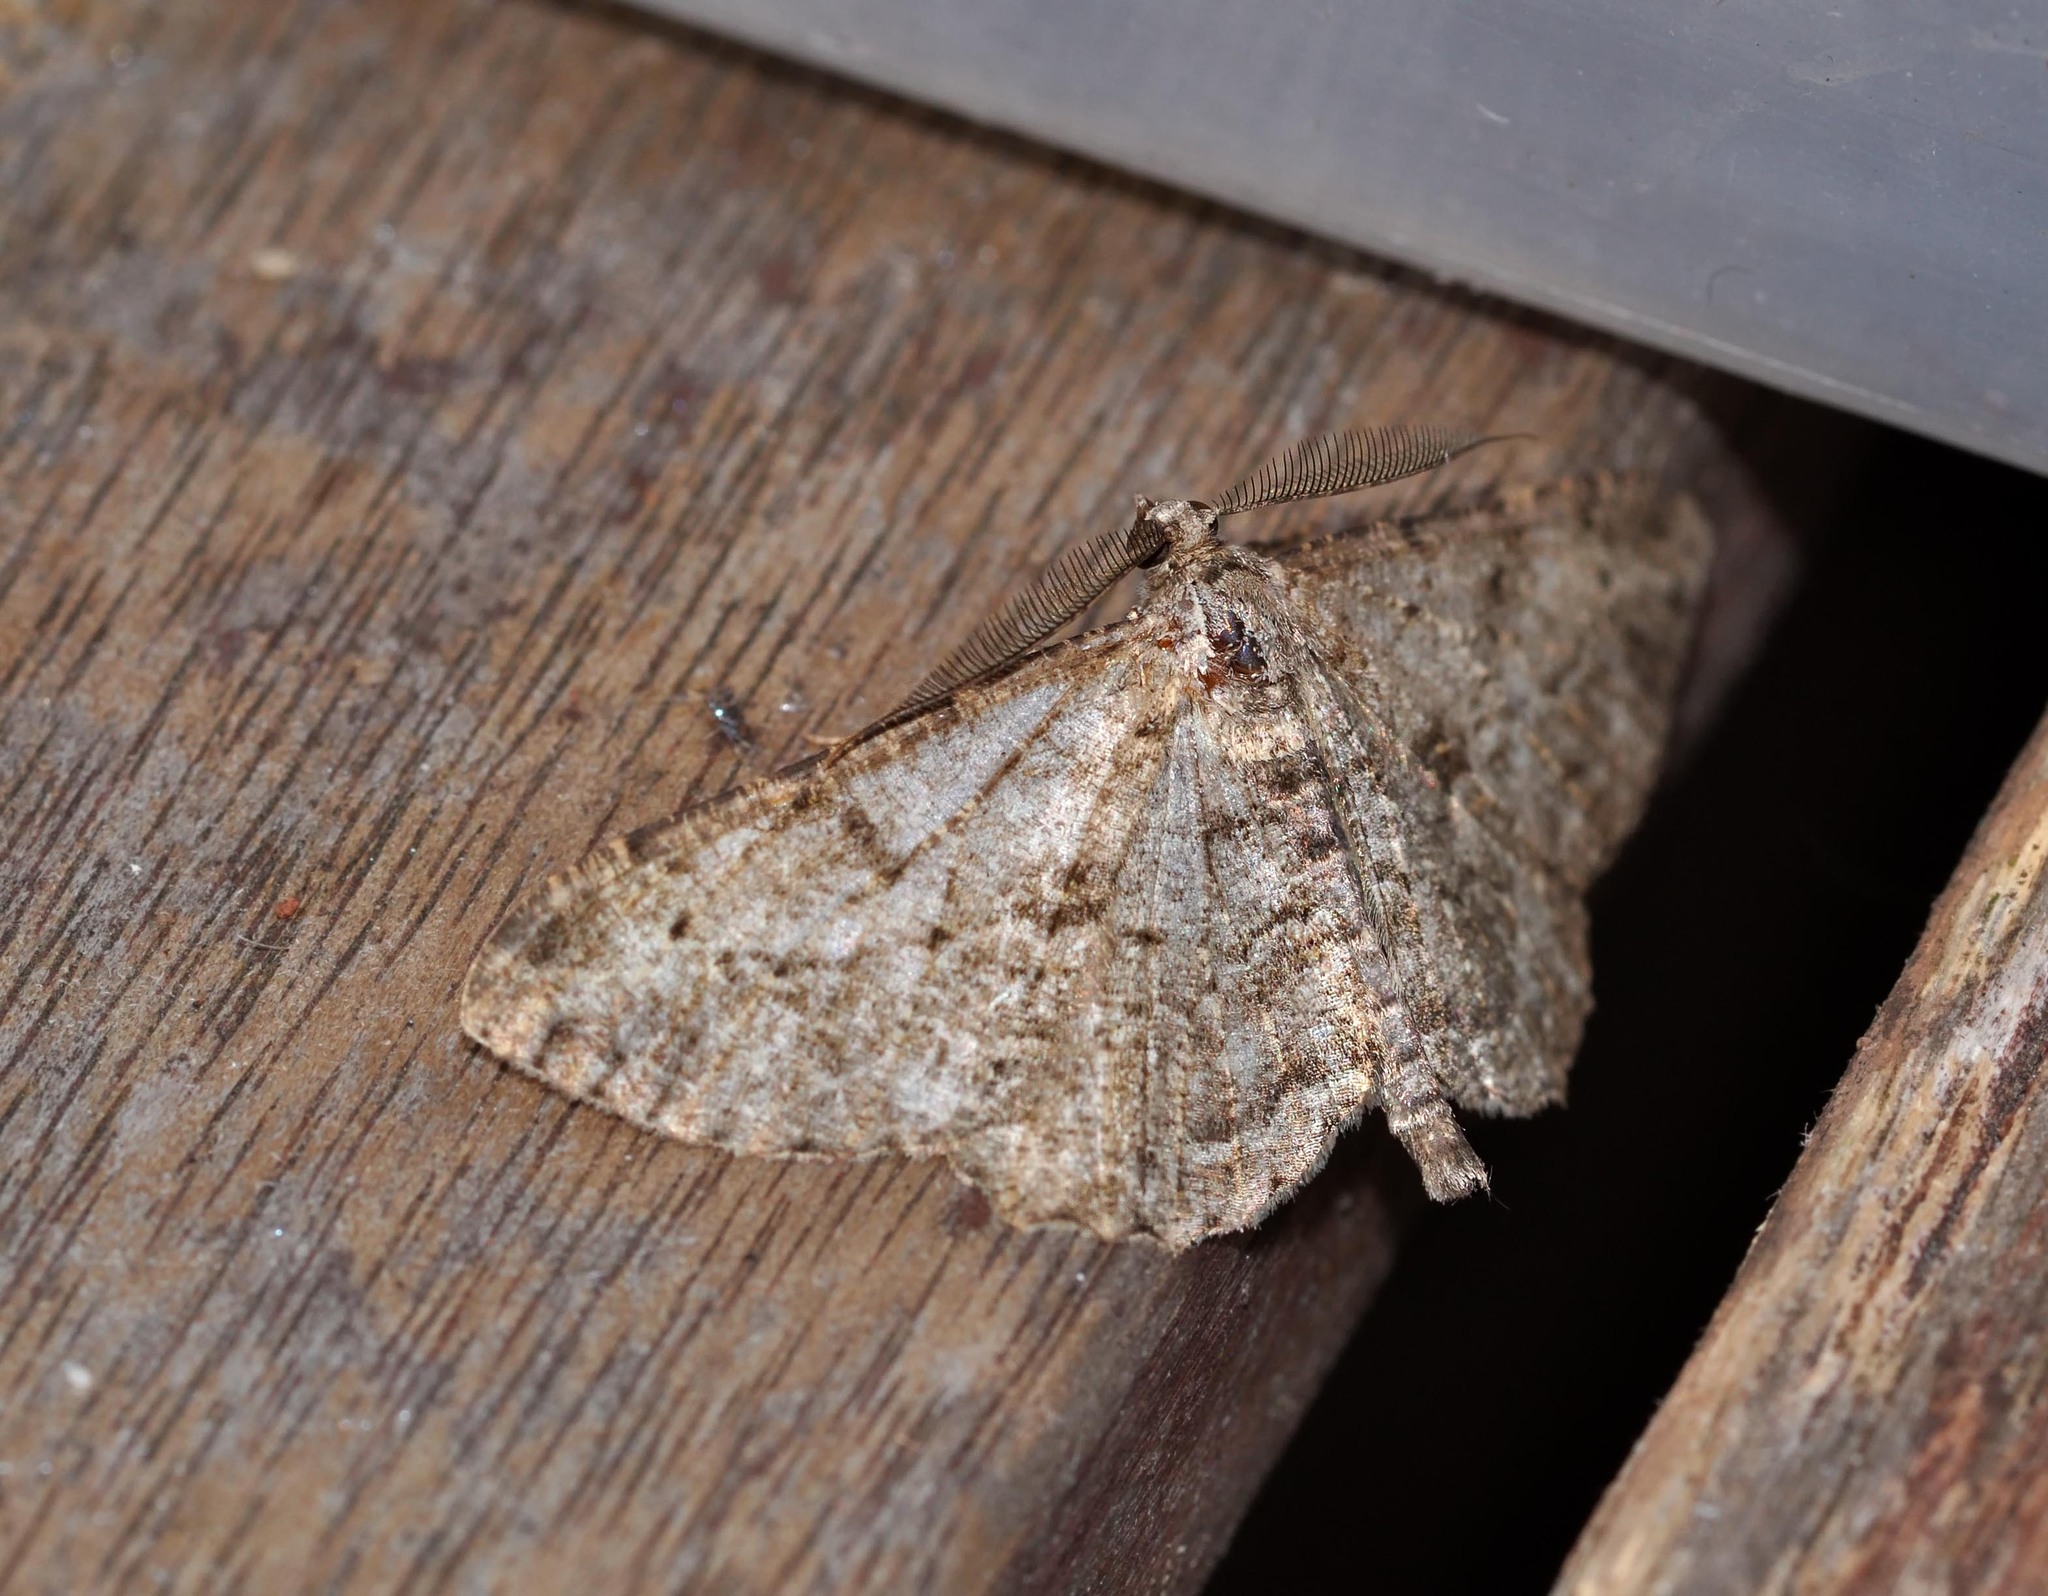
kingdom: Animalia
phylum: Arthropoda
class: Insecta
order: Lepidoptera
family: Geometridae
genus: Peribatodes
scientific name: Peribatodes rhomboidaria
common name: Willow beauty
